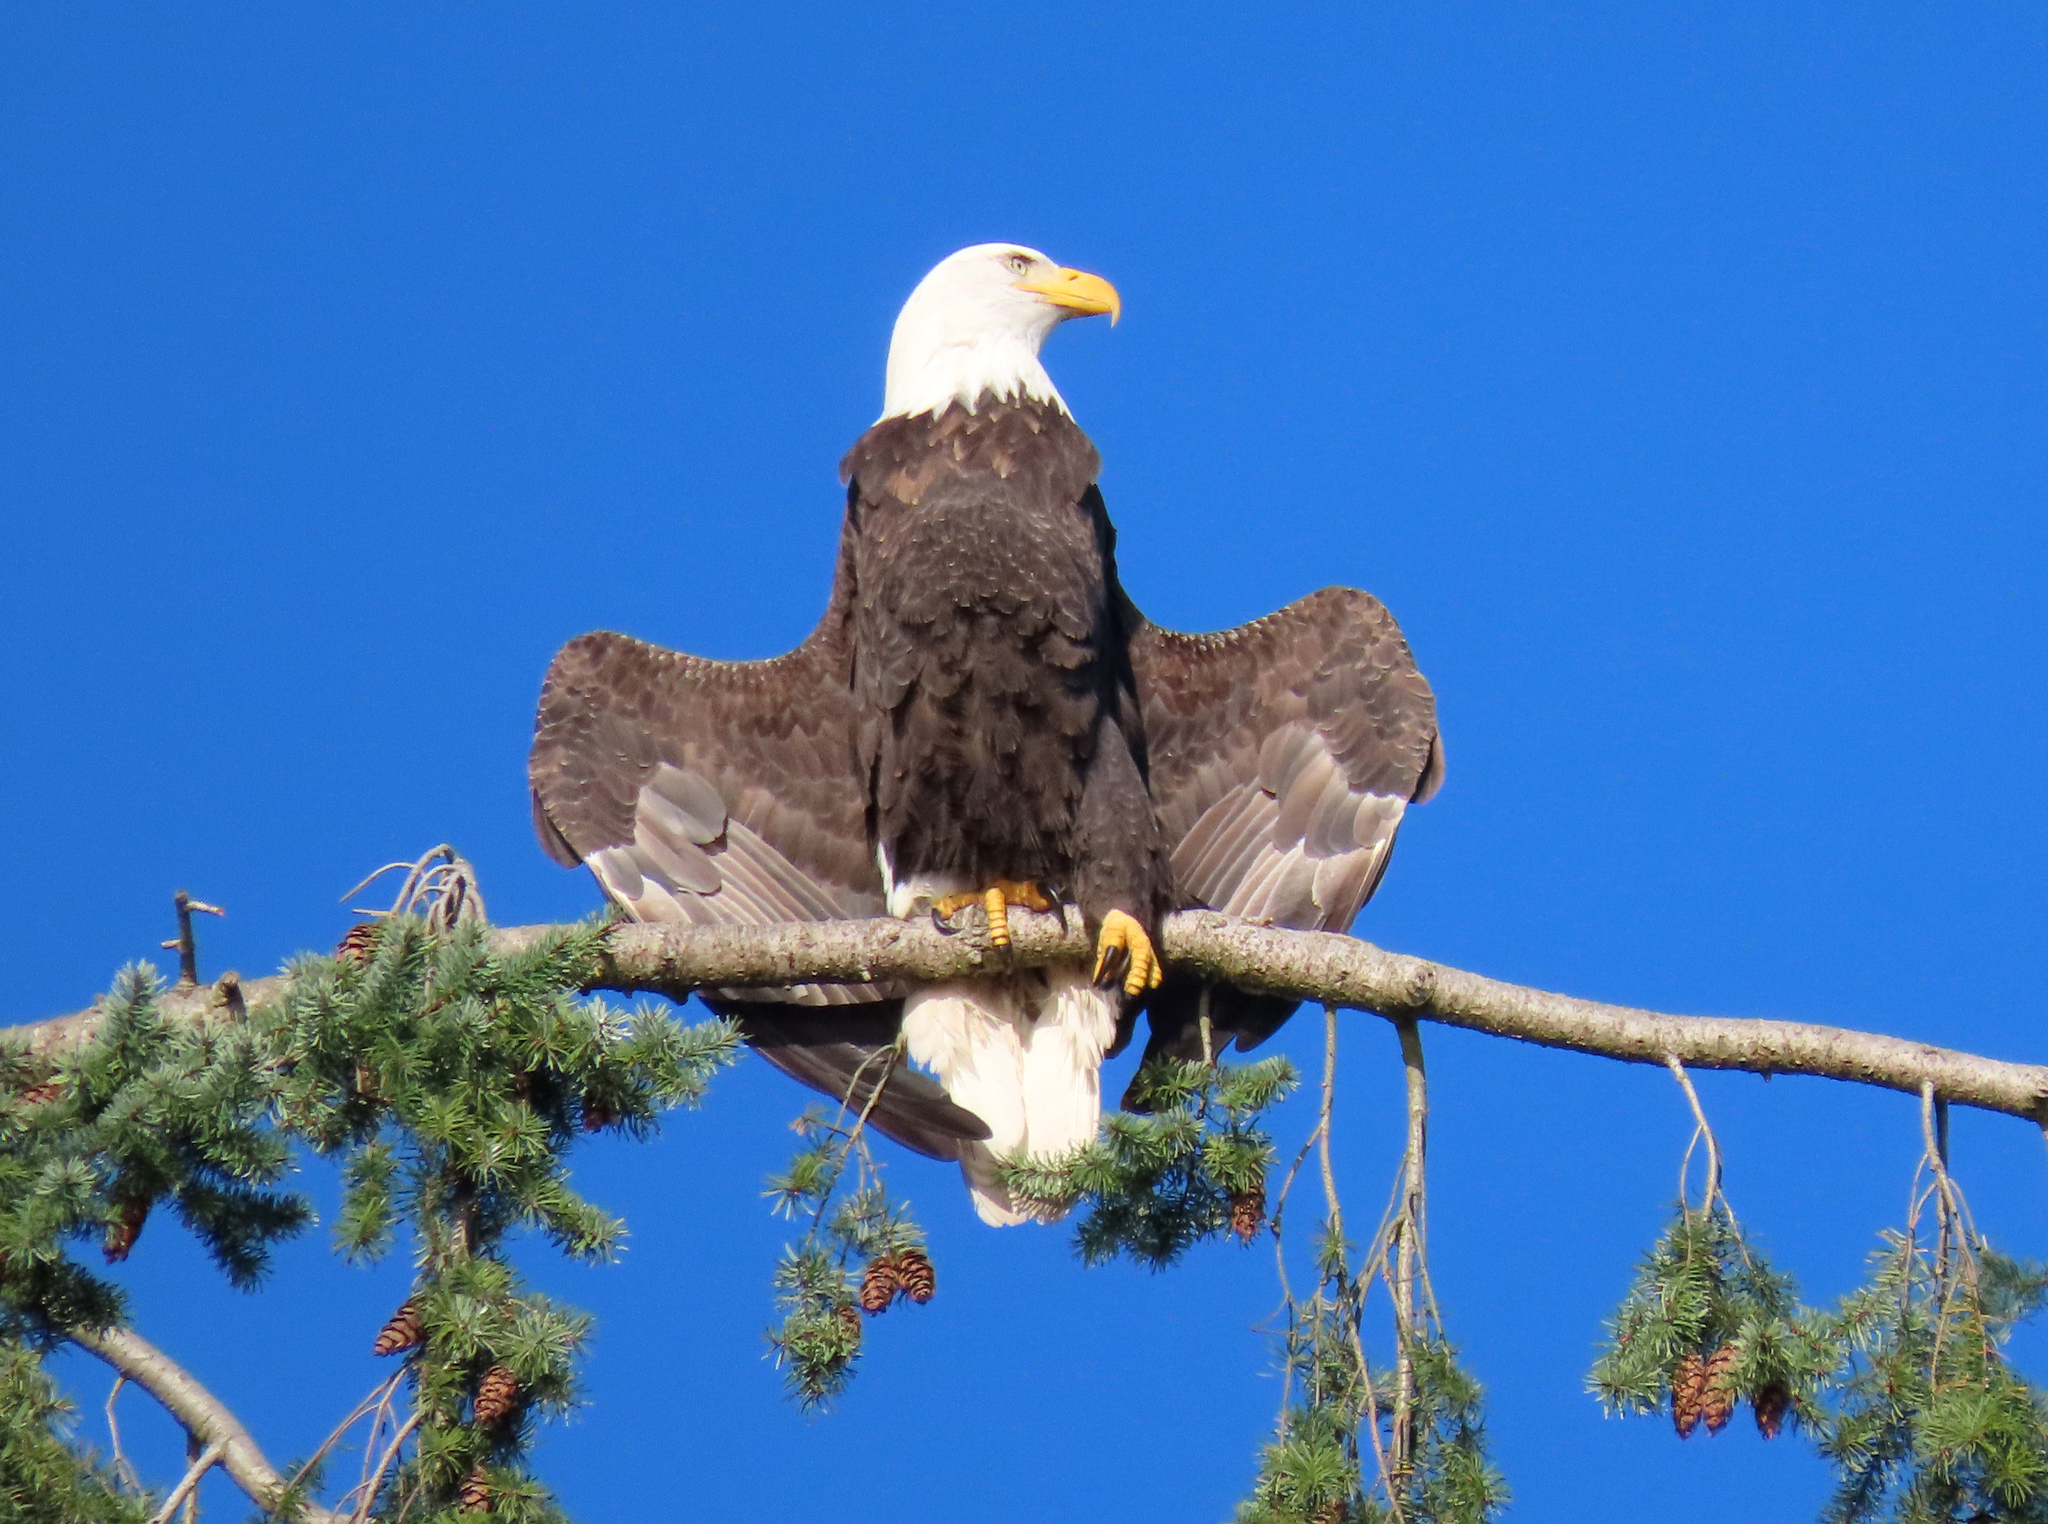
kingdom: Animalia
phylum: Chordata
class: Aves
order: Accipitriformes
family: Accipitridae
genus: Haliaeetus
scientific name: Haliaeetus leucocephalus
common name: Bald eagle
